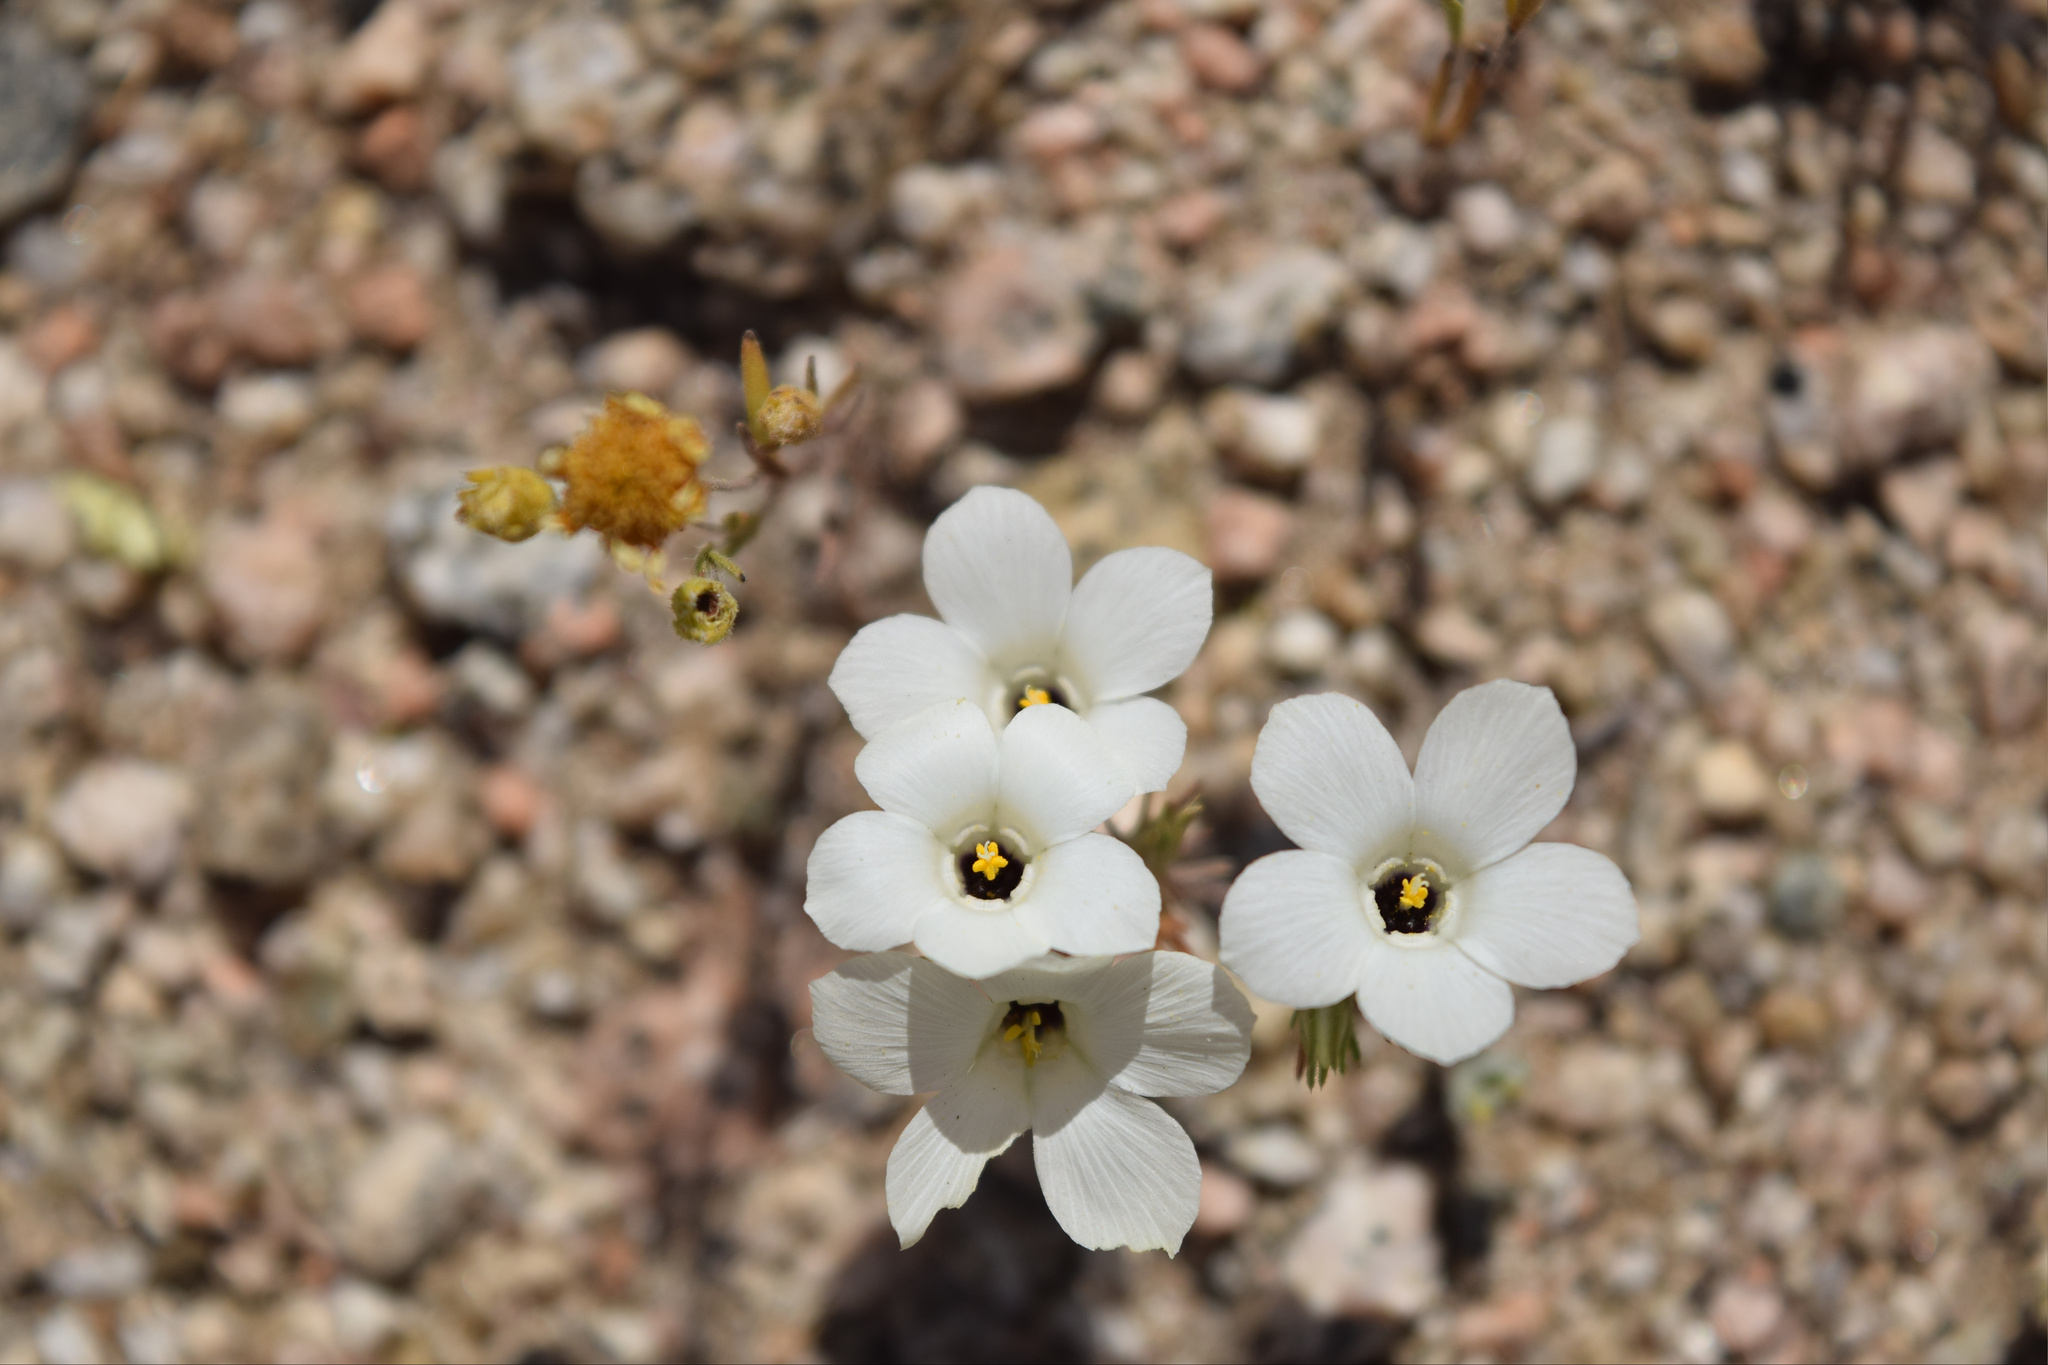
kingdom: Plantae
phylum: Tracheophyta
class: Magnoliopsida
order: Ericales
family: Polemoniaceae
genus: Linanthus
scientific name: Linanthus parryae
